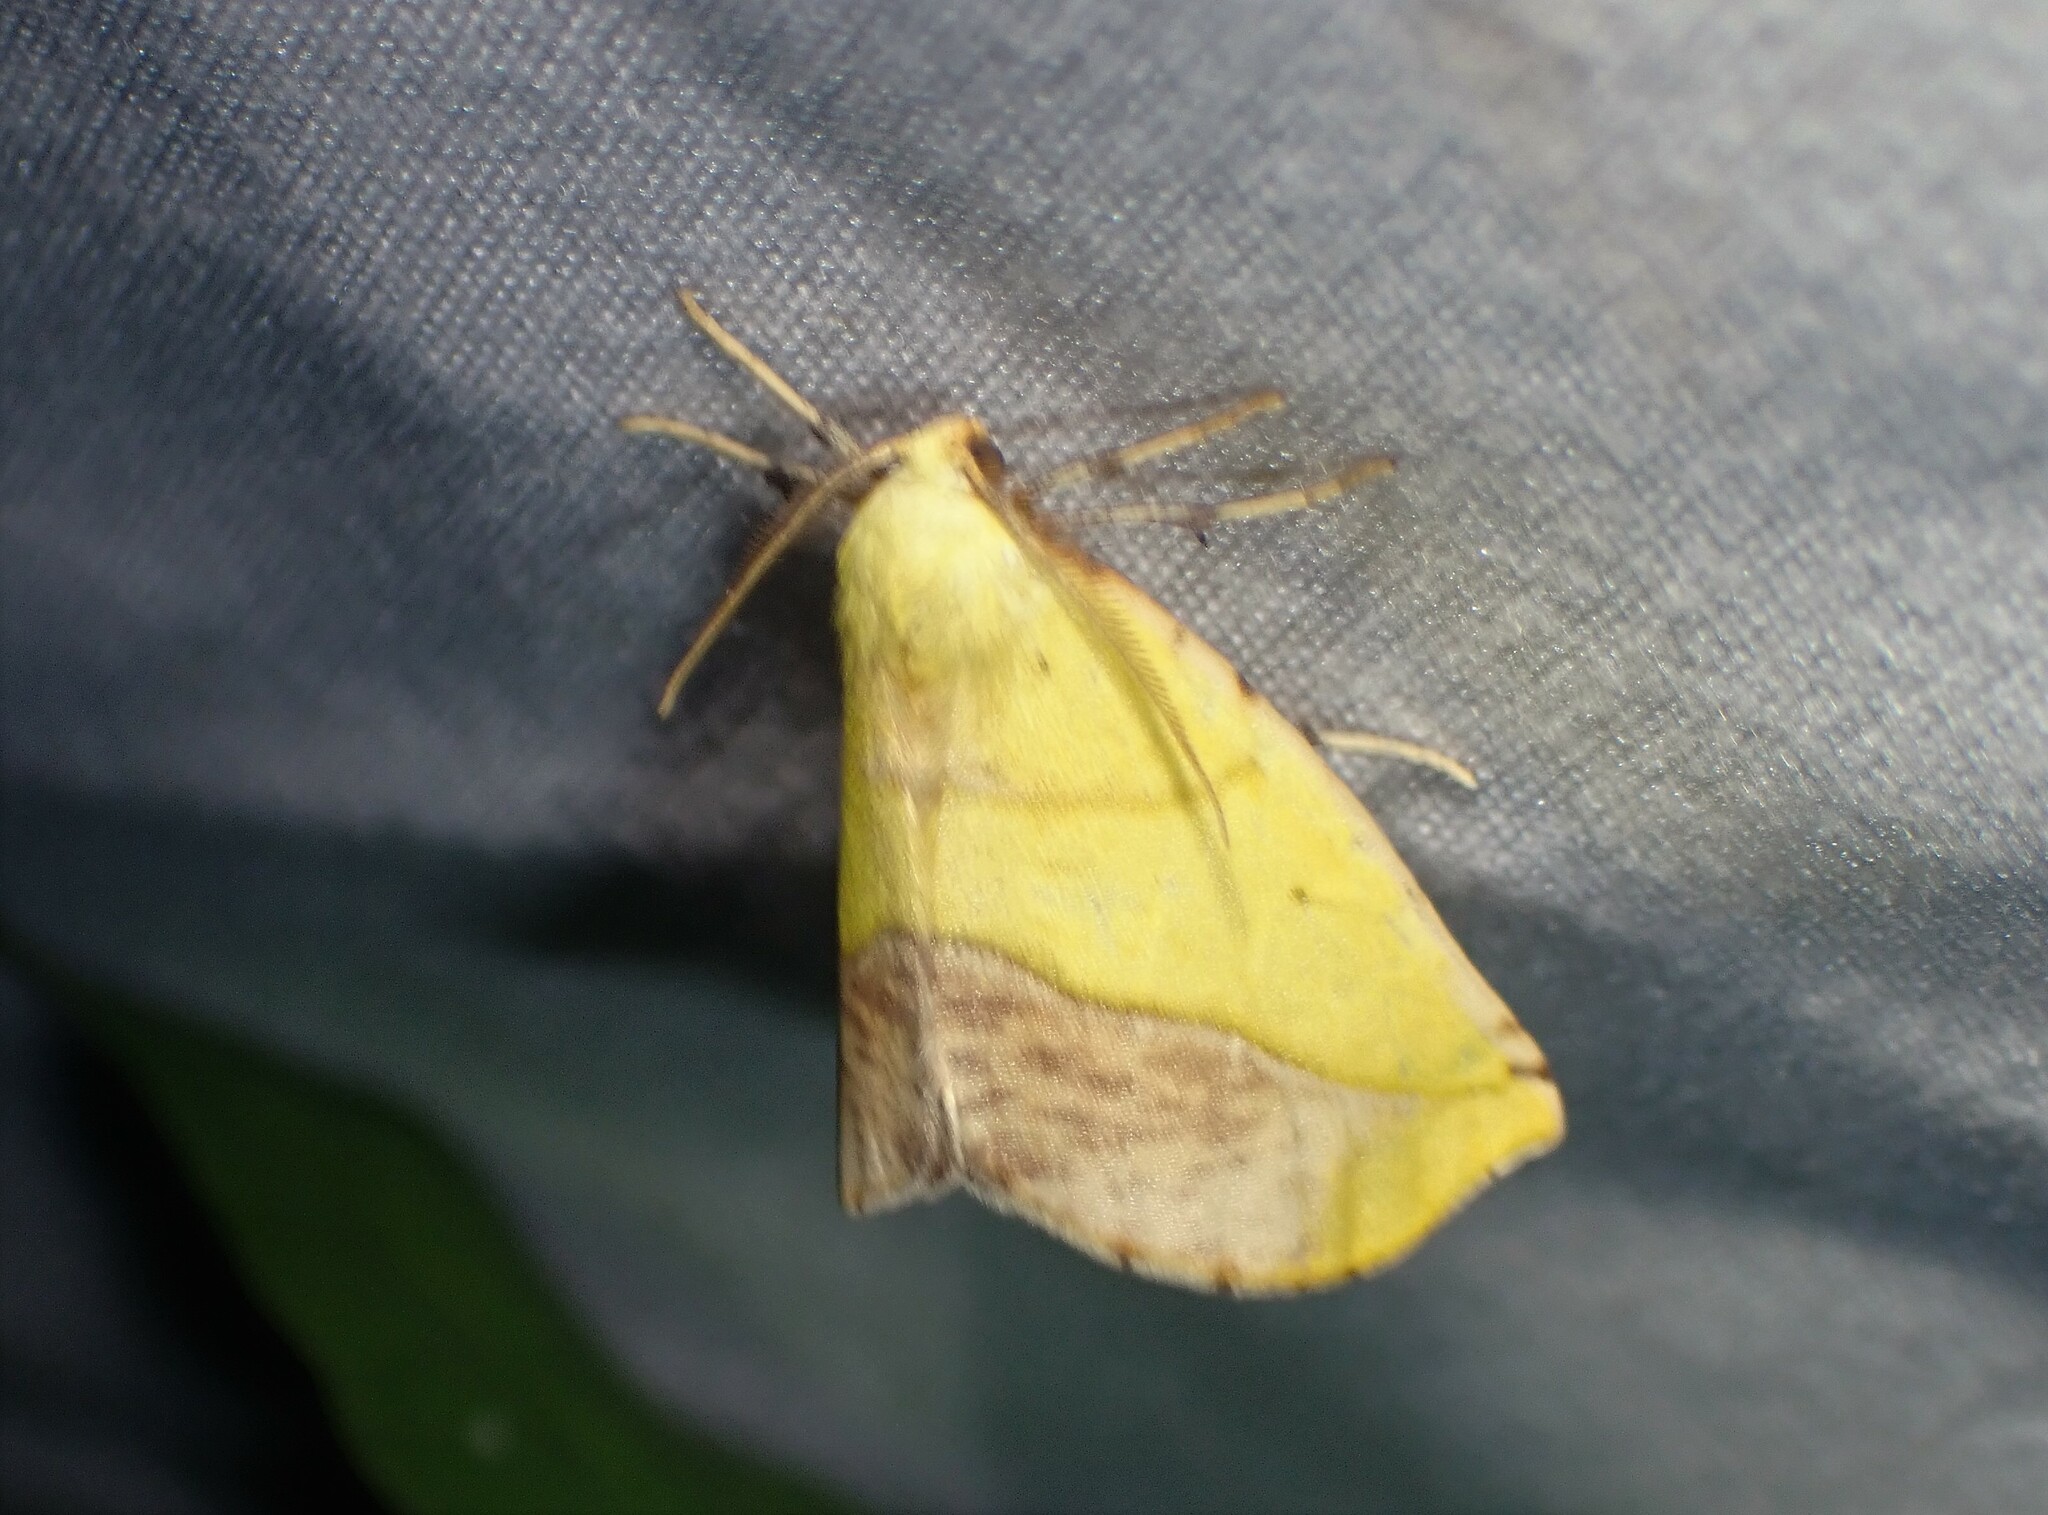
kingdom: Animalia
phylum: Arthropoda
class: Insecta
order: Lepidoptera
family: Geometridae
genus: Sicya
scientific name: Sicya macularia
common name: Sharp-lined yellow
